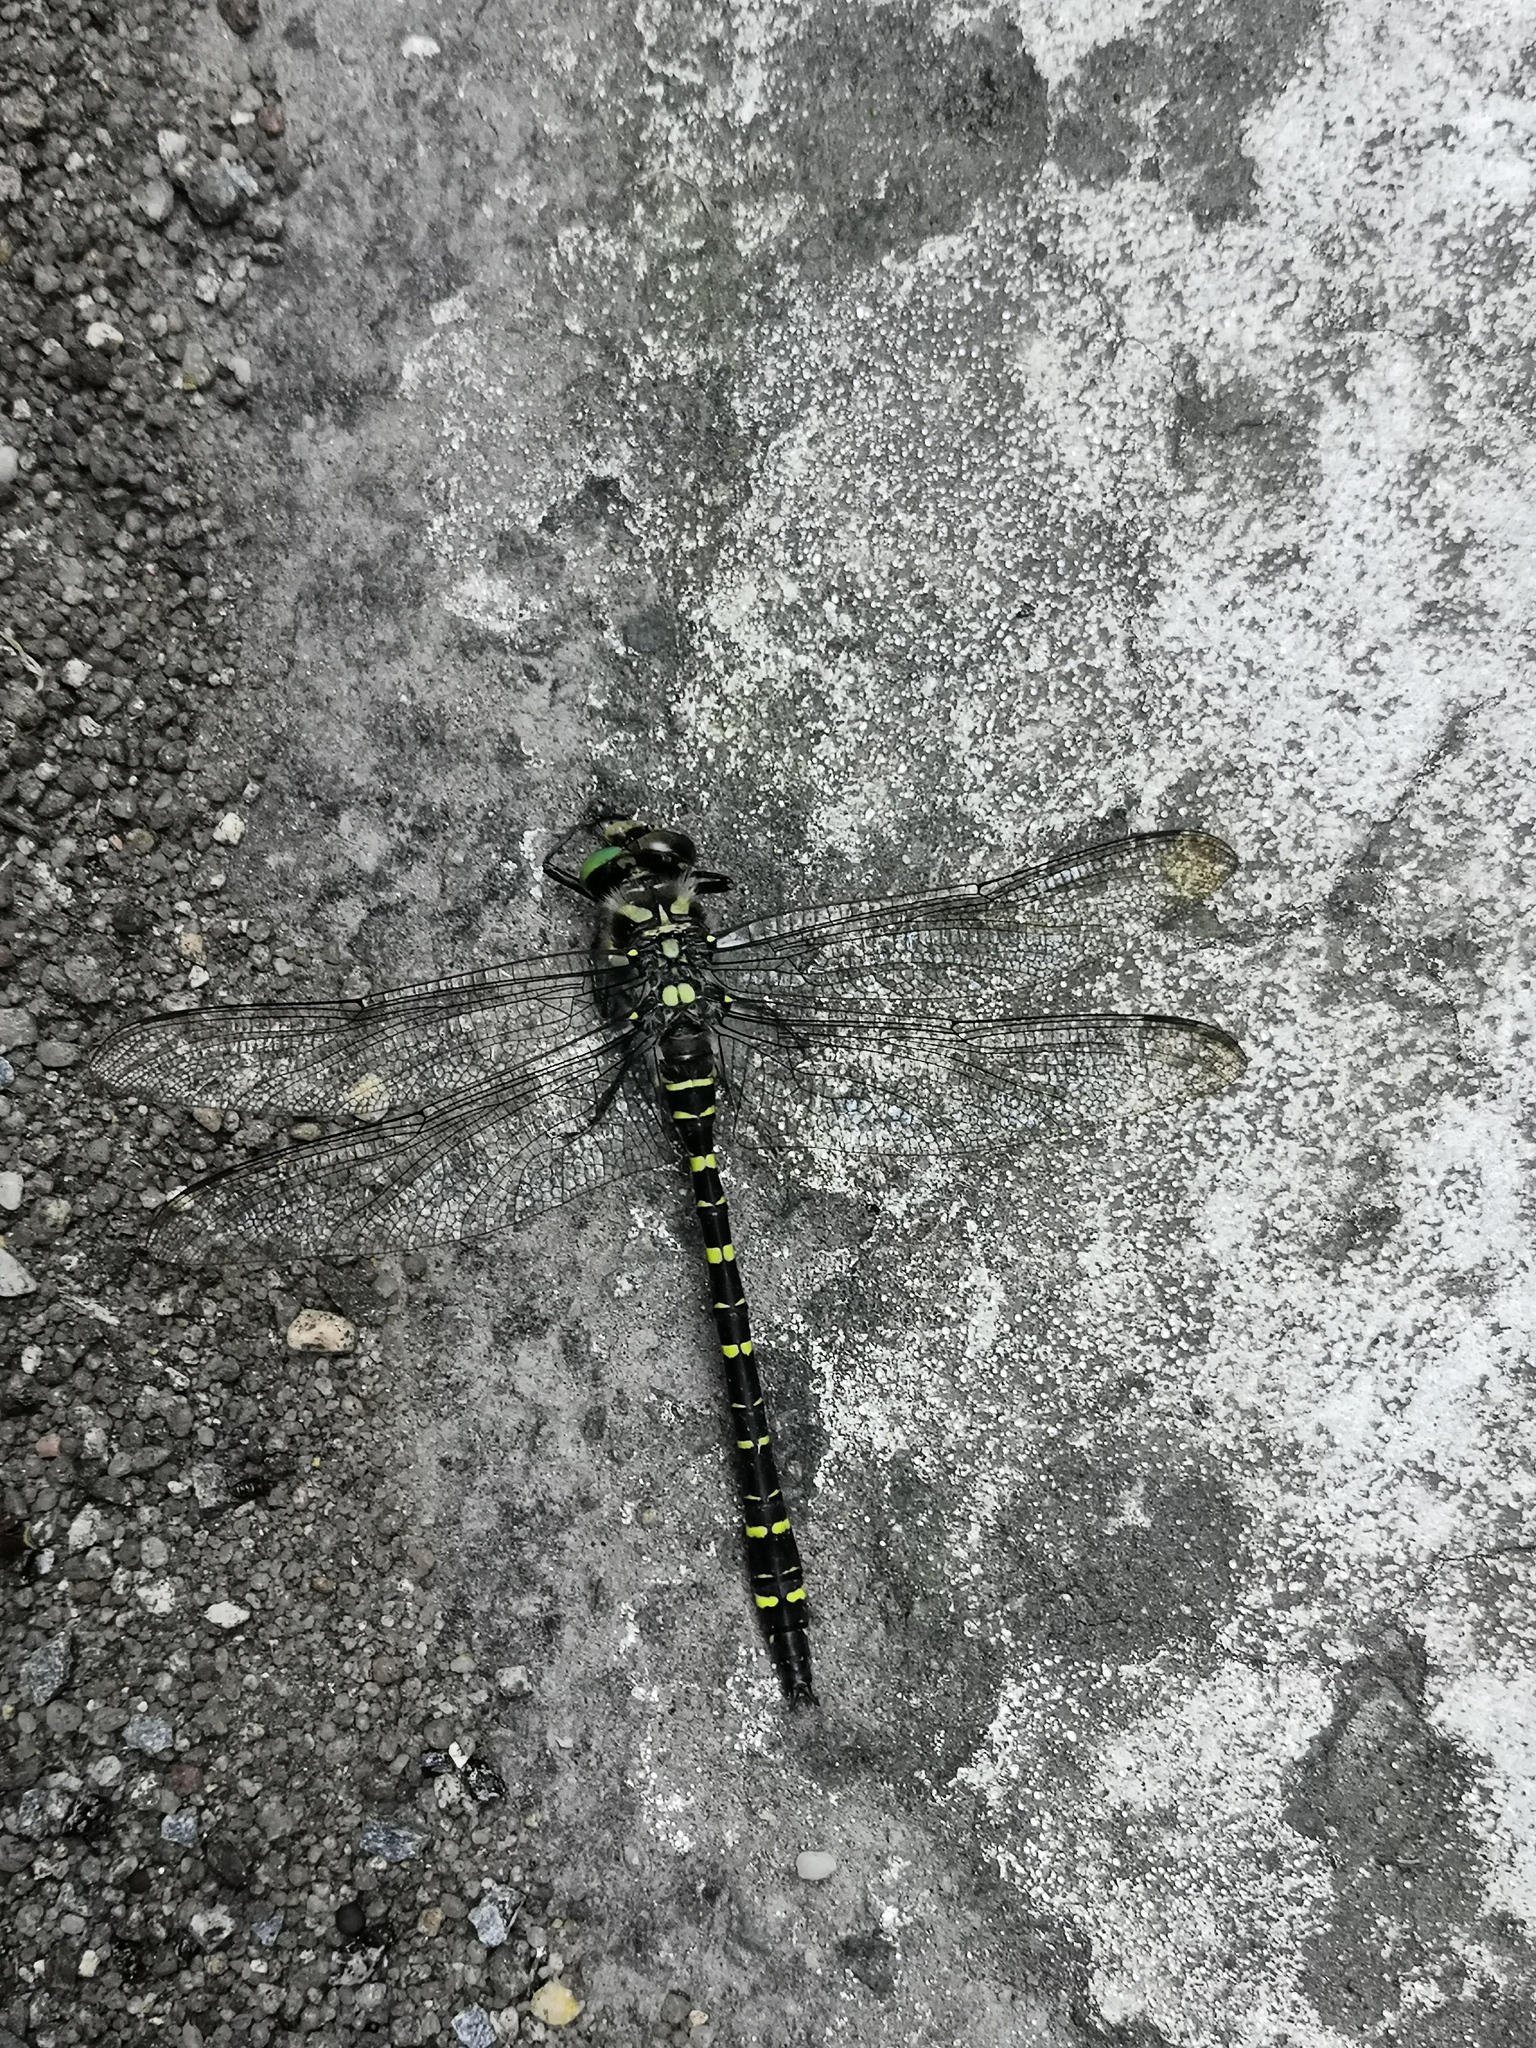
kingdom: Animalia
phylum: Arthropoda
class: Insecta
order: Odonata
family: Cordulegastridae
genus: Cordulegaster
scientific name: Cordulegaster boltonii
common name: Golden-ringed dragonfly
